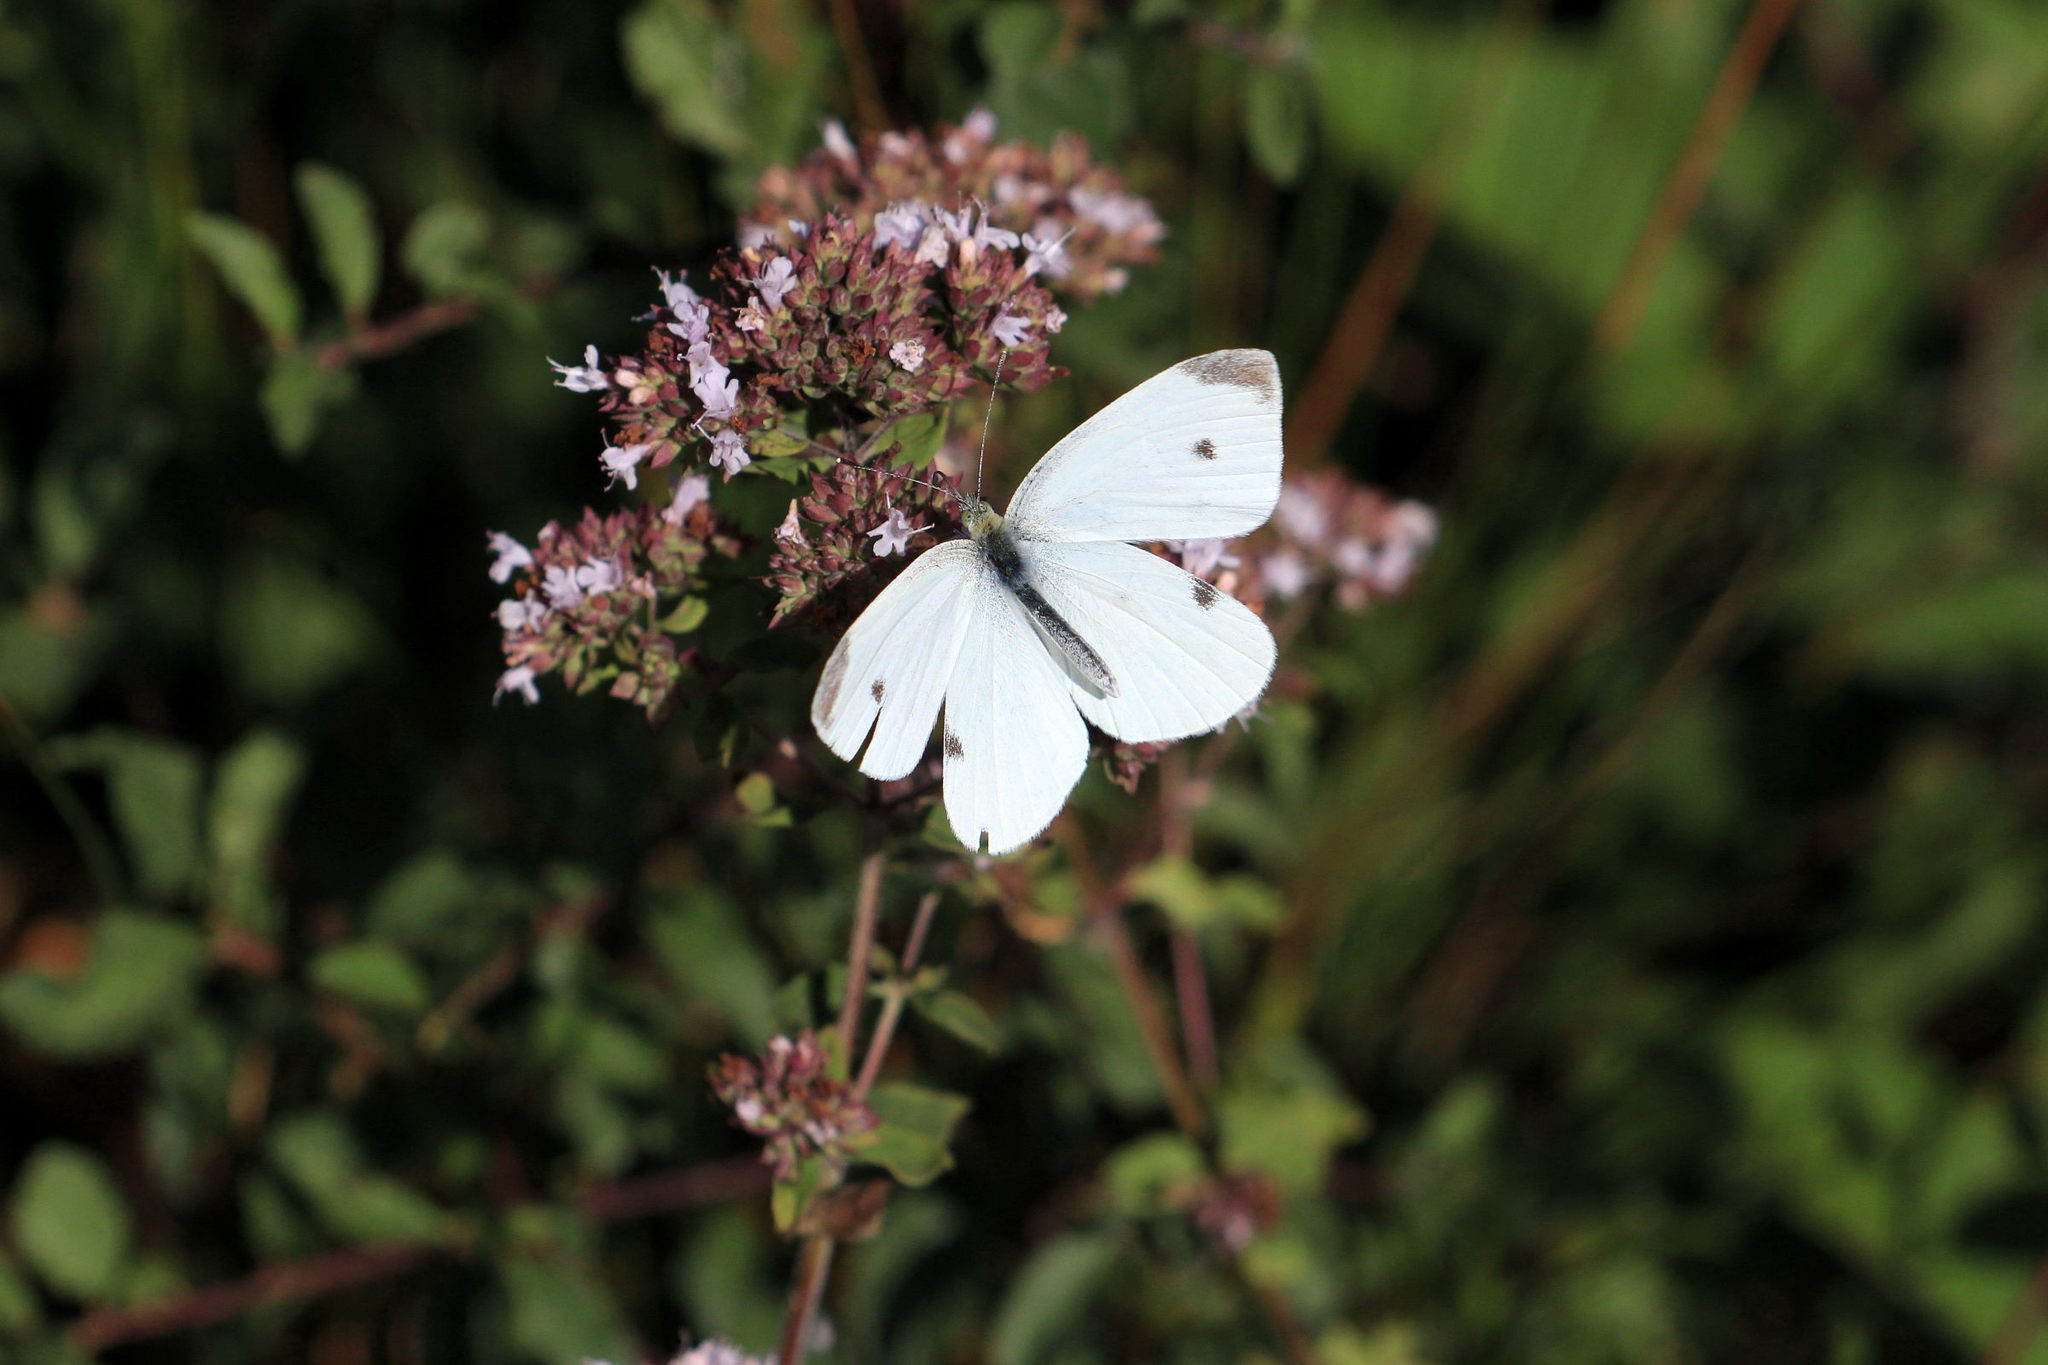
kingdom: Animalia
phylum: Arthropoda
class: Insecta
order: Lepidoptera
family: Pieridae
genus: Pieris
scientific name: Pieris rapae
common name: Small white
